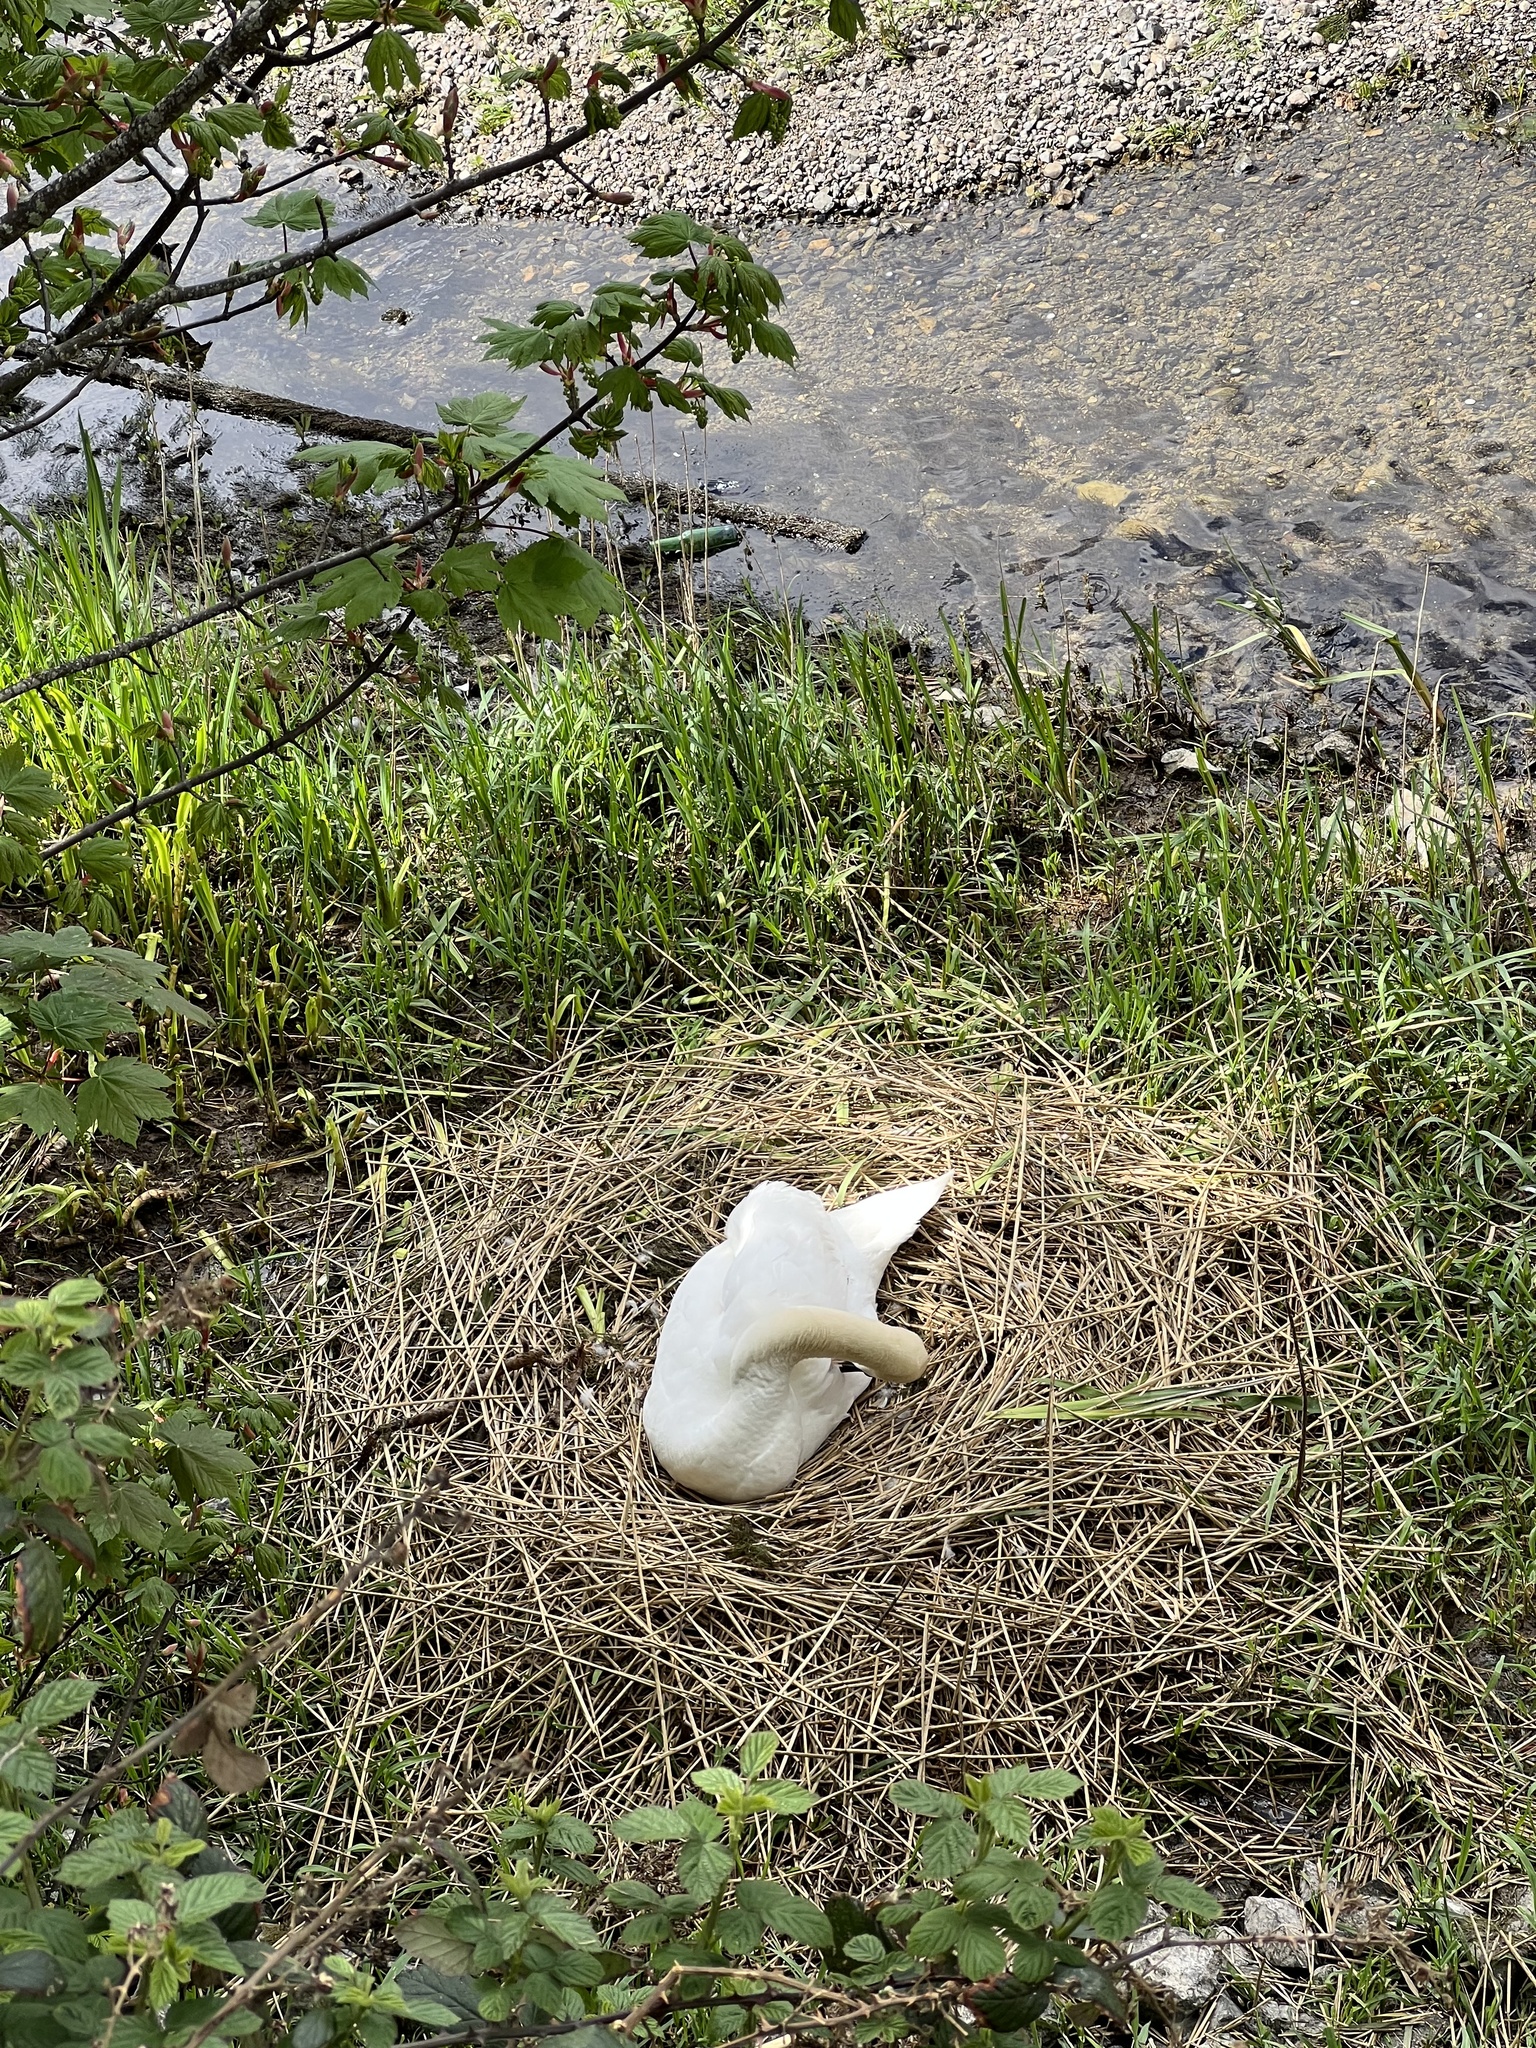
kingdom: Animalia
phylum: Chordata
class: Aves
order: Anseriformes
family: Anatidae
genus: Cygnus
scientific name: Cygnus olor
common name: Mute swan
